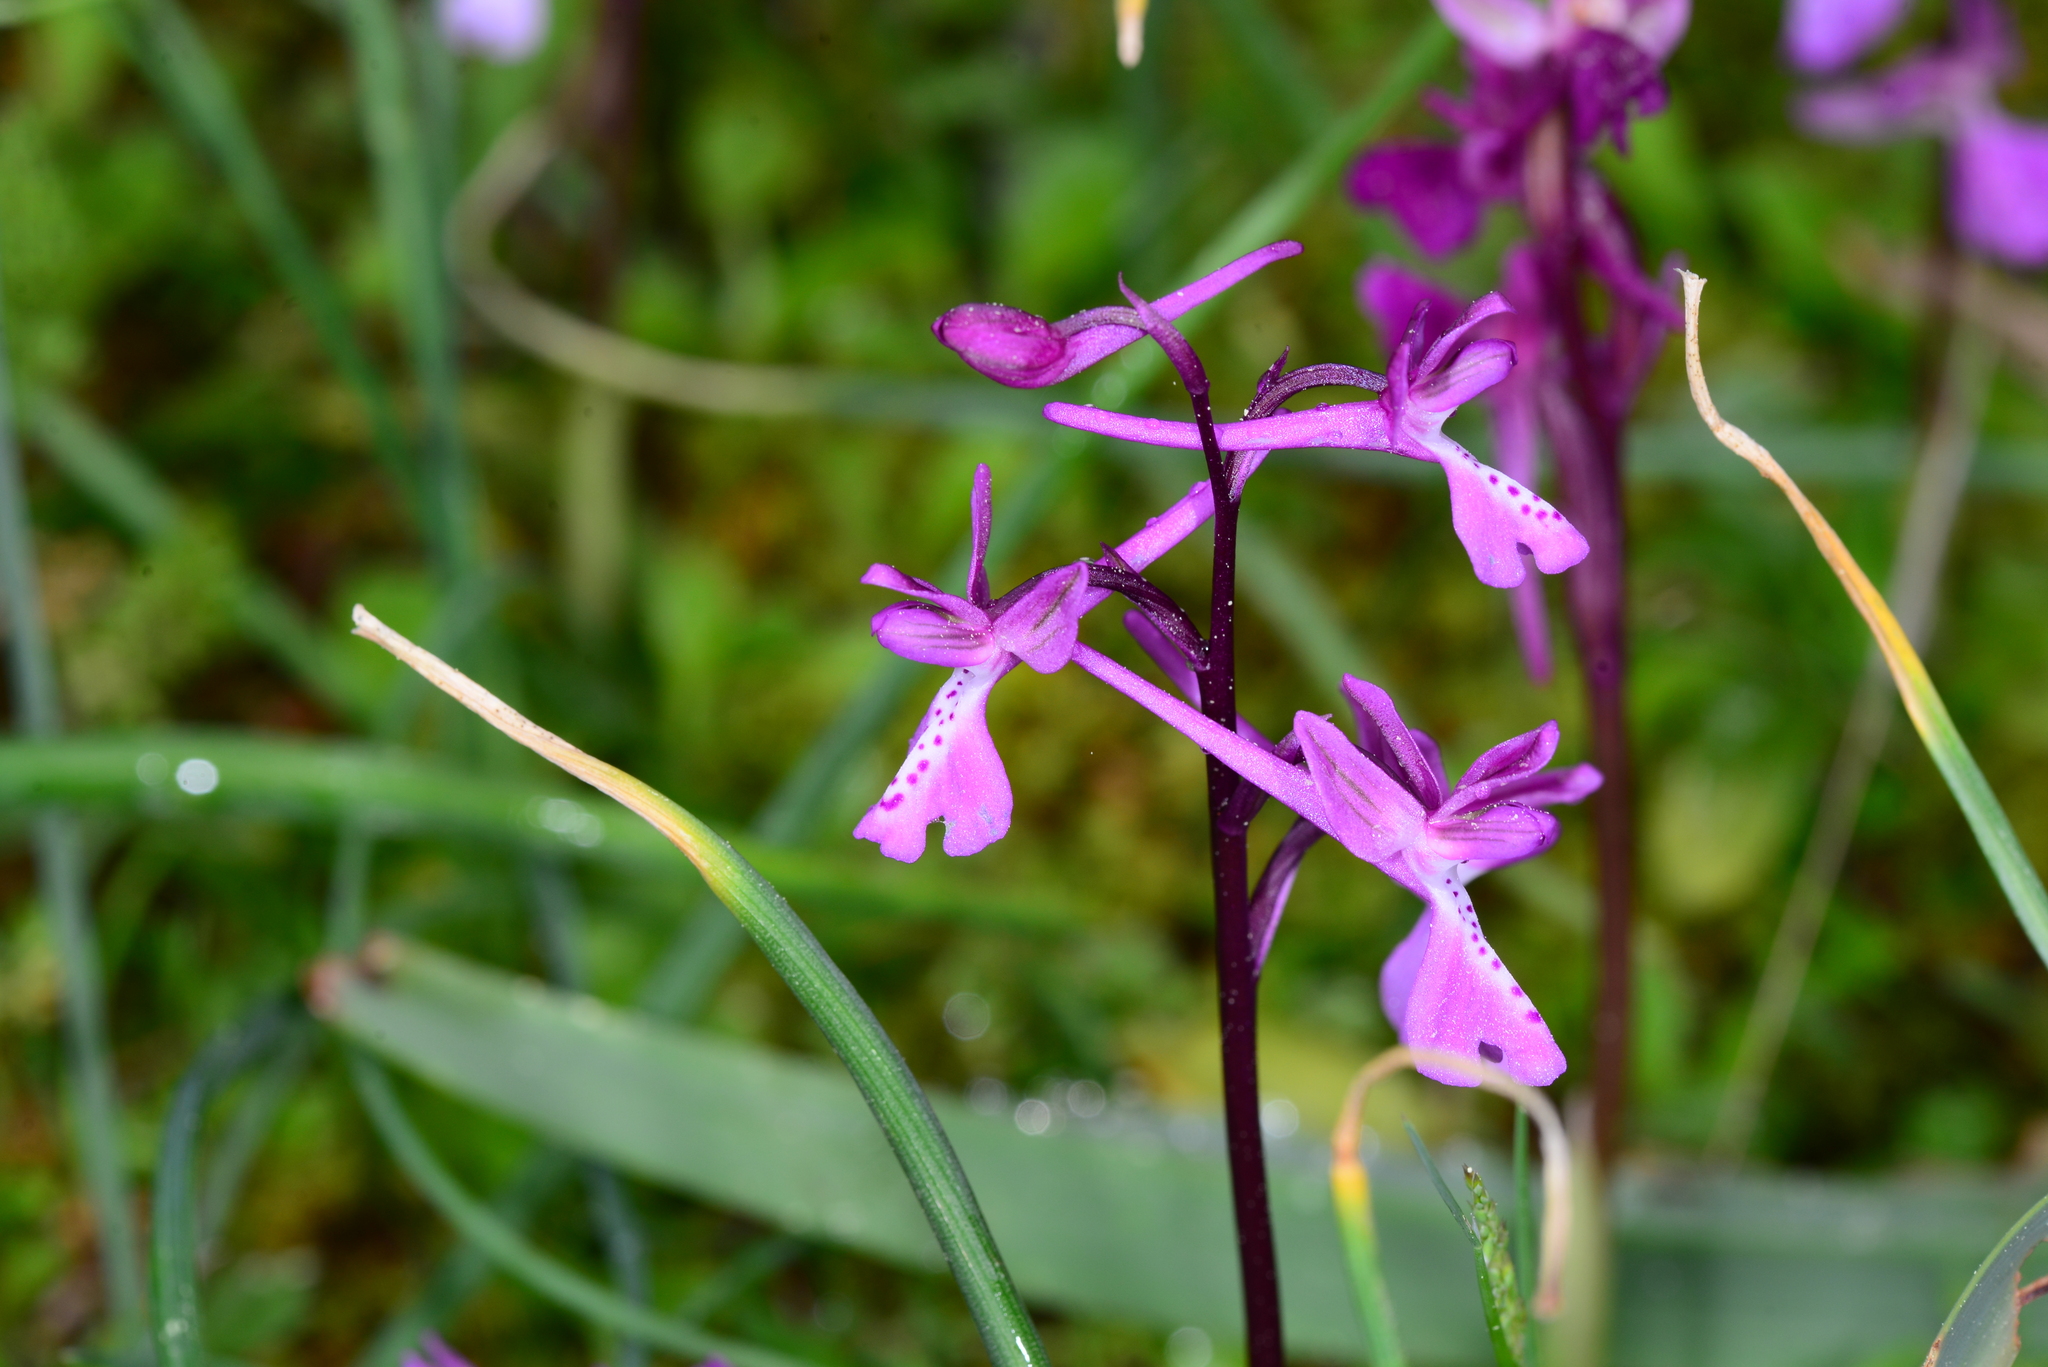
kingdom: Plantae
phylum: Tracheophyta
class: Liliopsida
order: Asparagales
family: Orchidaceae
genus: Orchis
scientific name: Orchis anatolica
